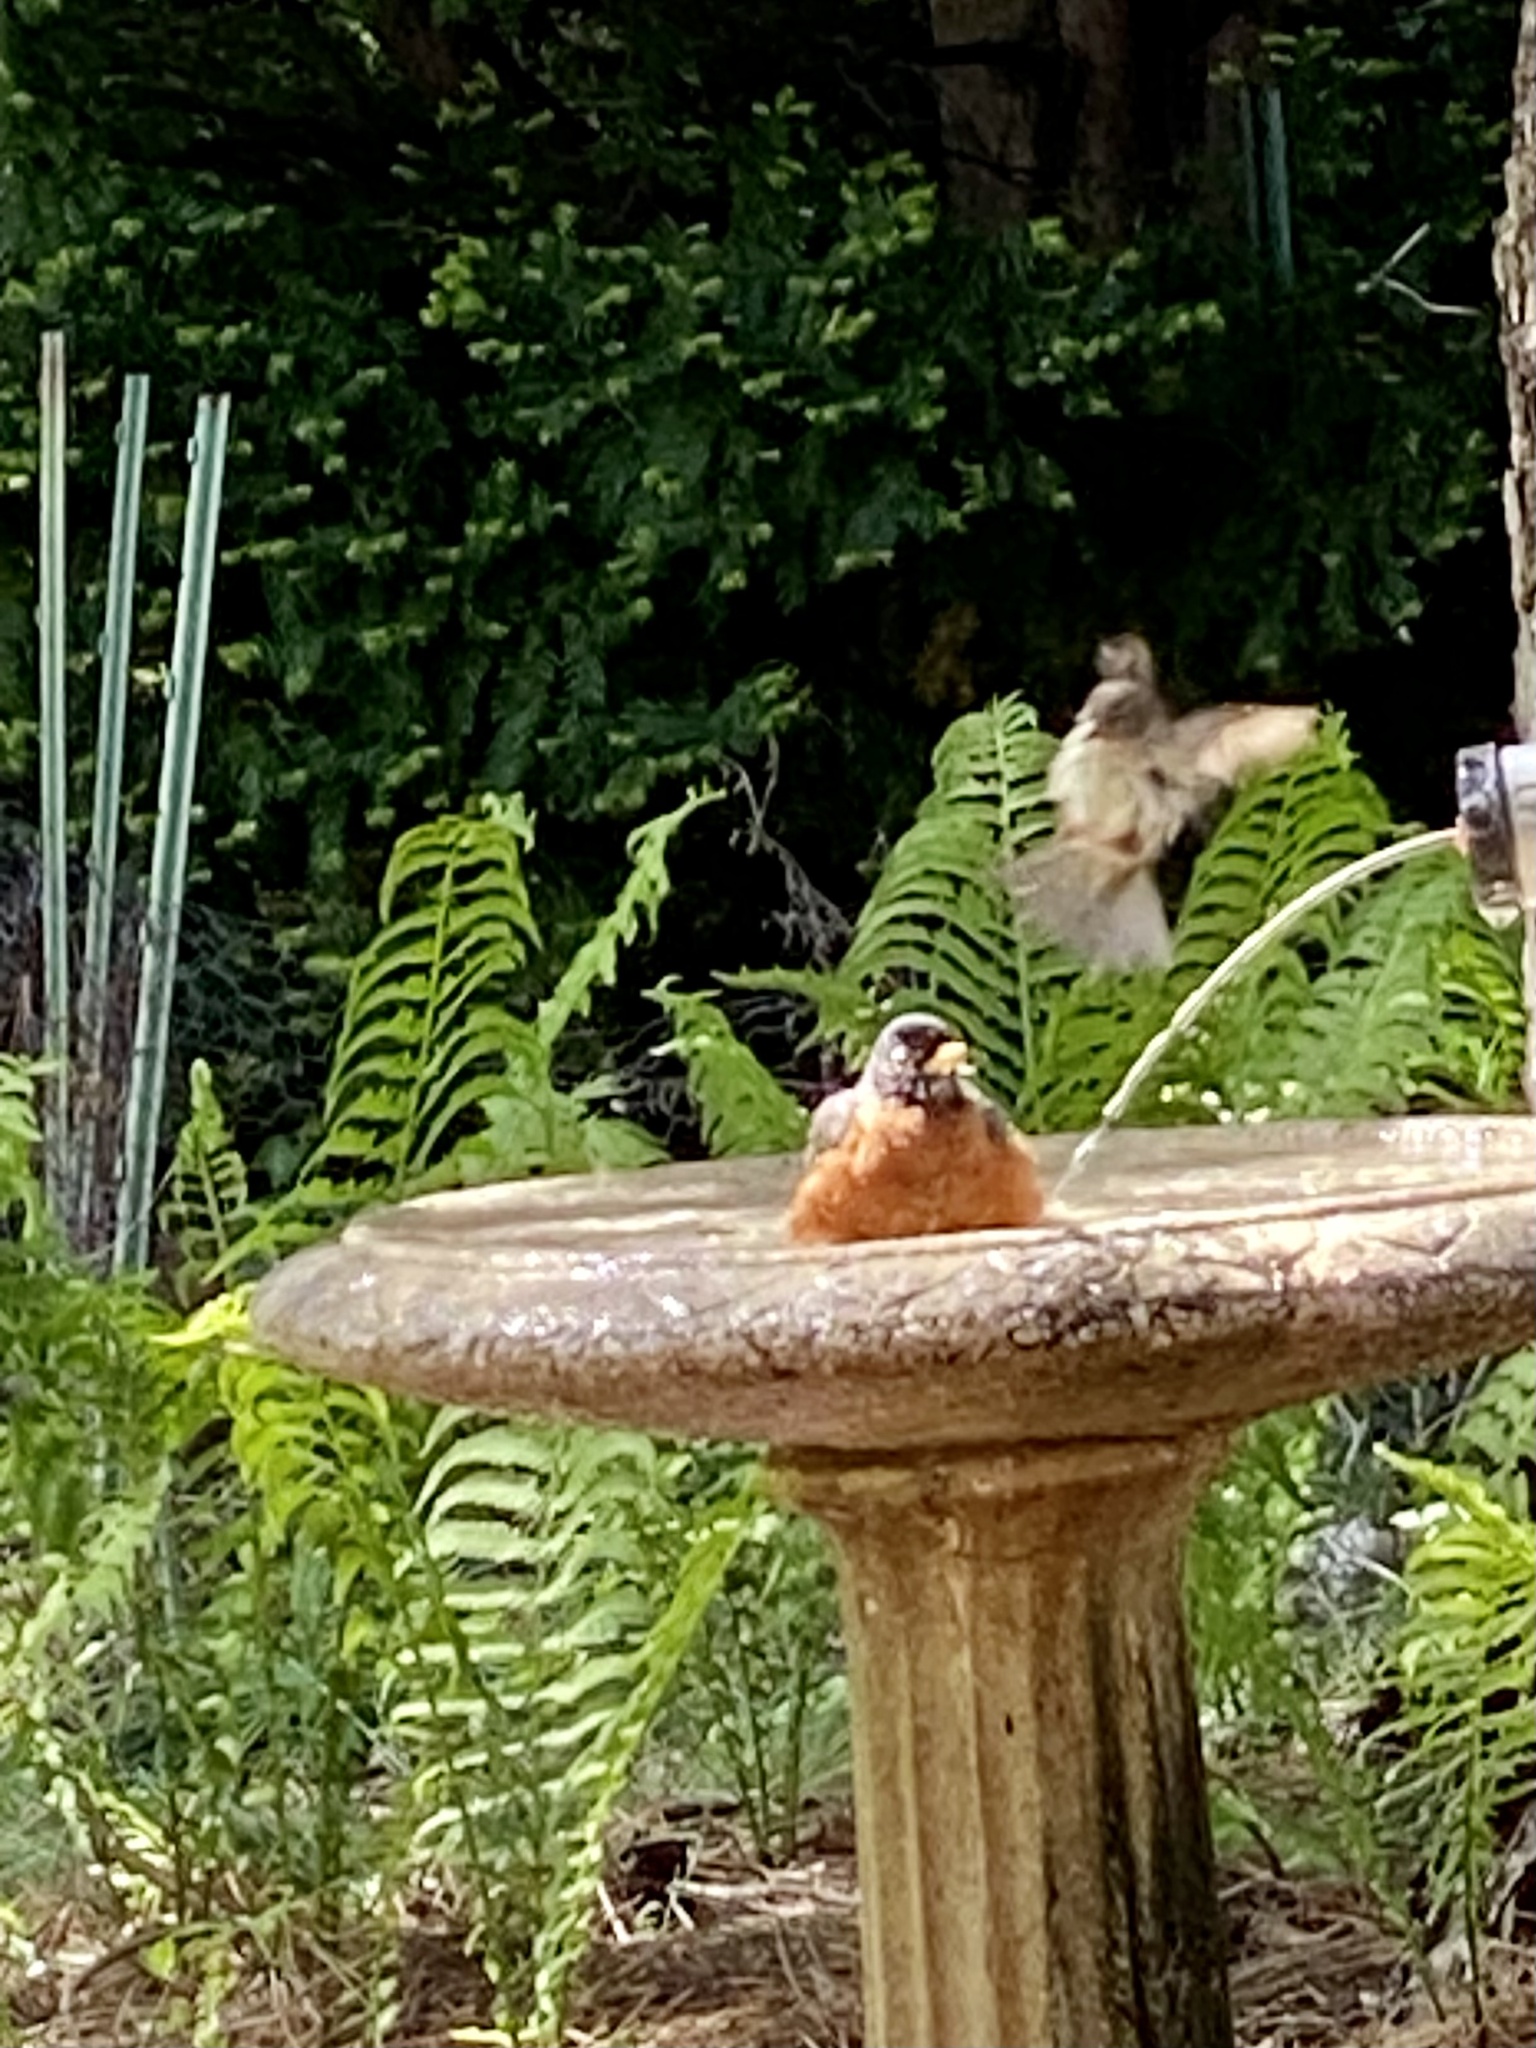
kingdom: Animalia
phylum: Chordata
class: Aves
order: Passeriformes
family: Turdidae
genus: Turdus
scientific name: Turdus migratorius
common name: American robin
